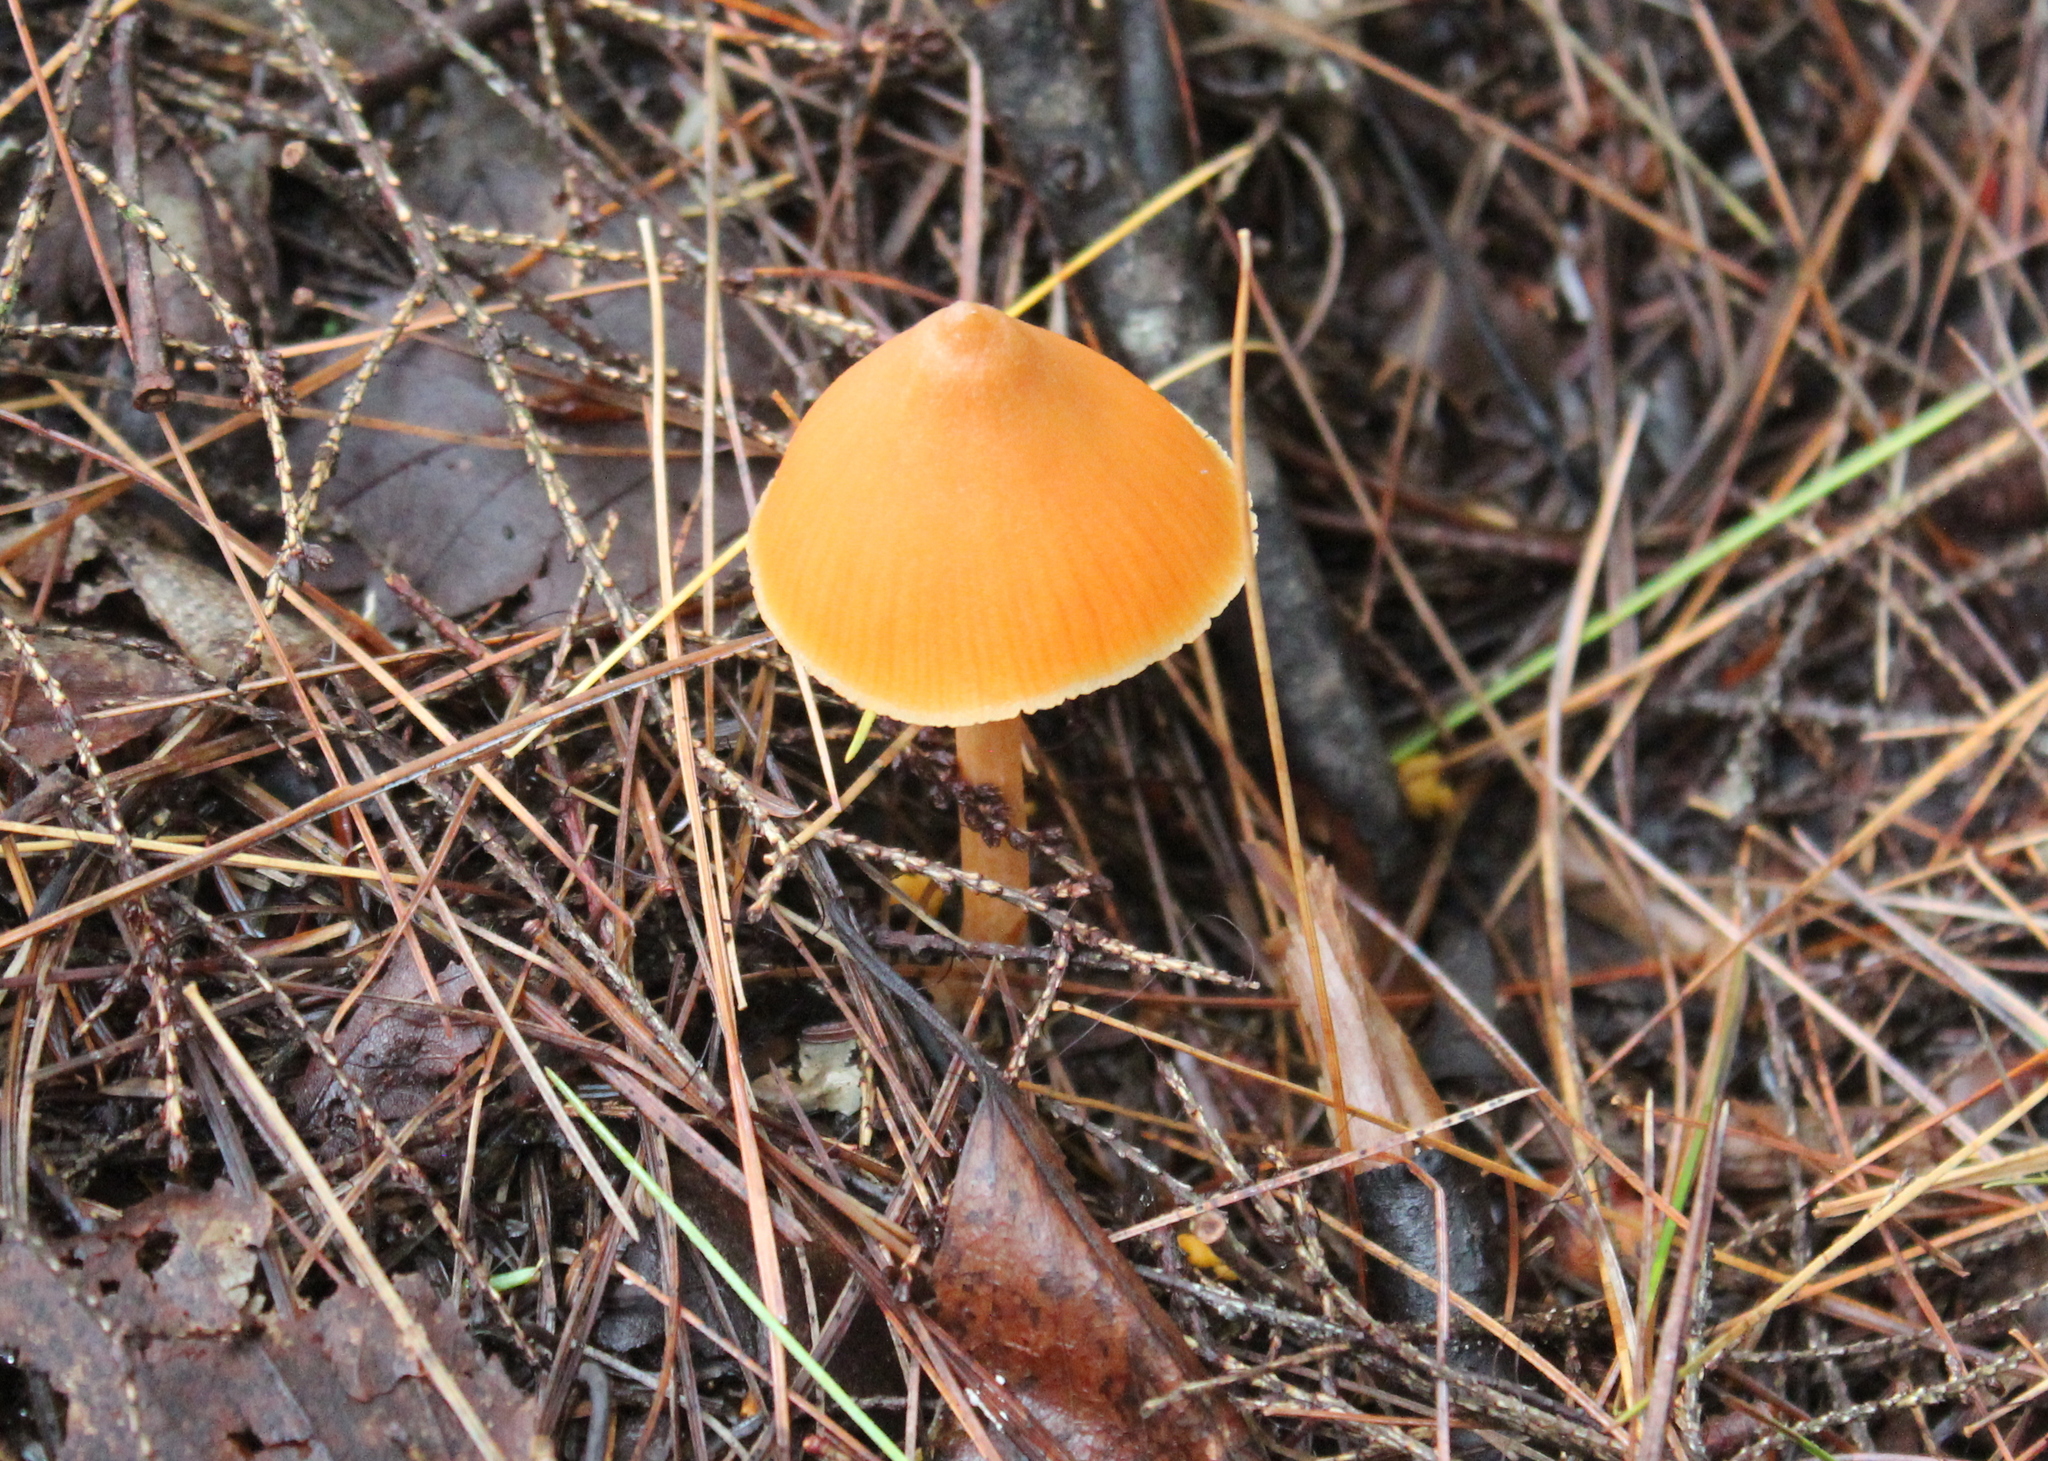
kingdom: Fungi
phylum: Basidiomycota
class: Agaricomycetes
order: Agaricales
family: Entolomataceae
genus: Entoloma
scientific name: Entoloma quadratum
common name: Salmon pinkgill
